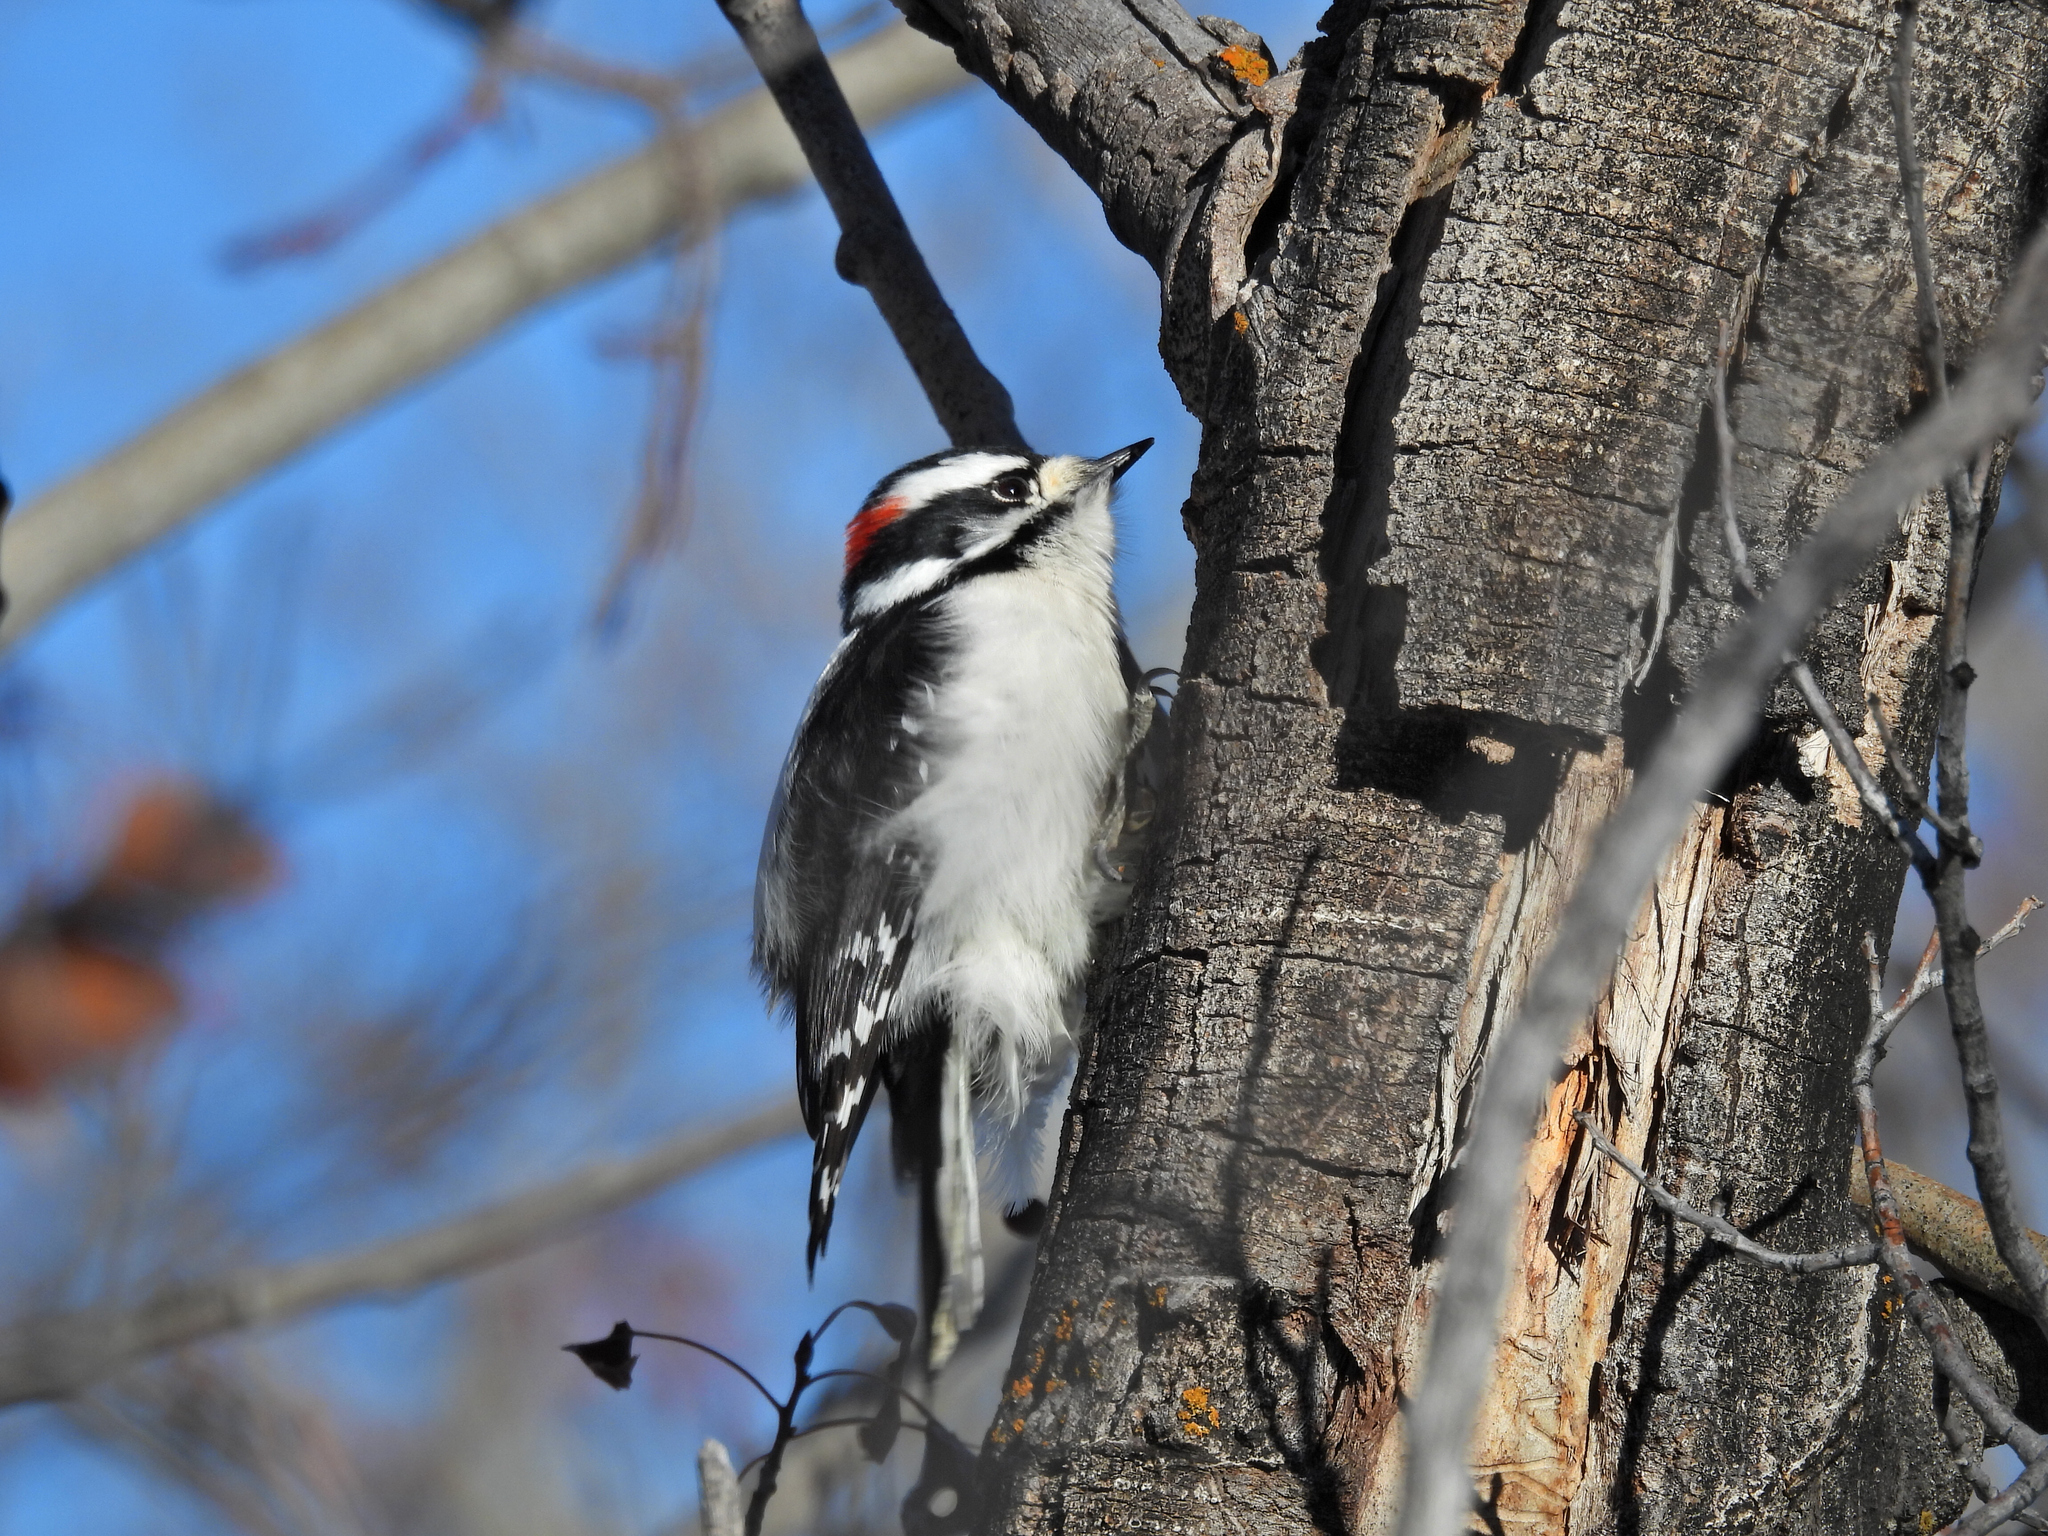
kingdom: Animalia
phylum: Chordata
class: Aves
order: Piciformes
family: Picidae
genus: Dryobates
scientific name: Dryobates pubescens
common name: Downy woodpecker
